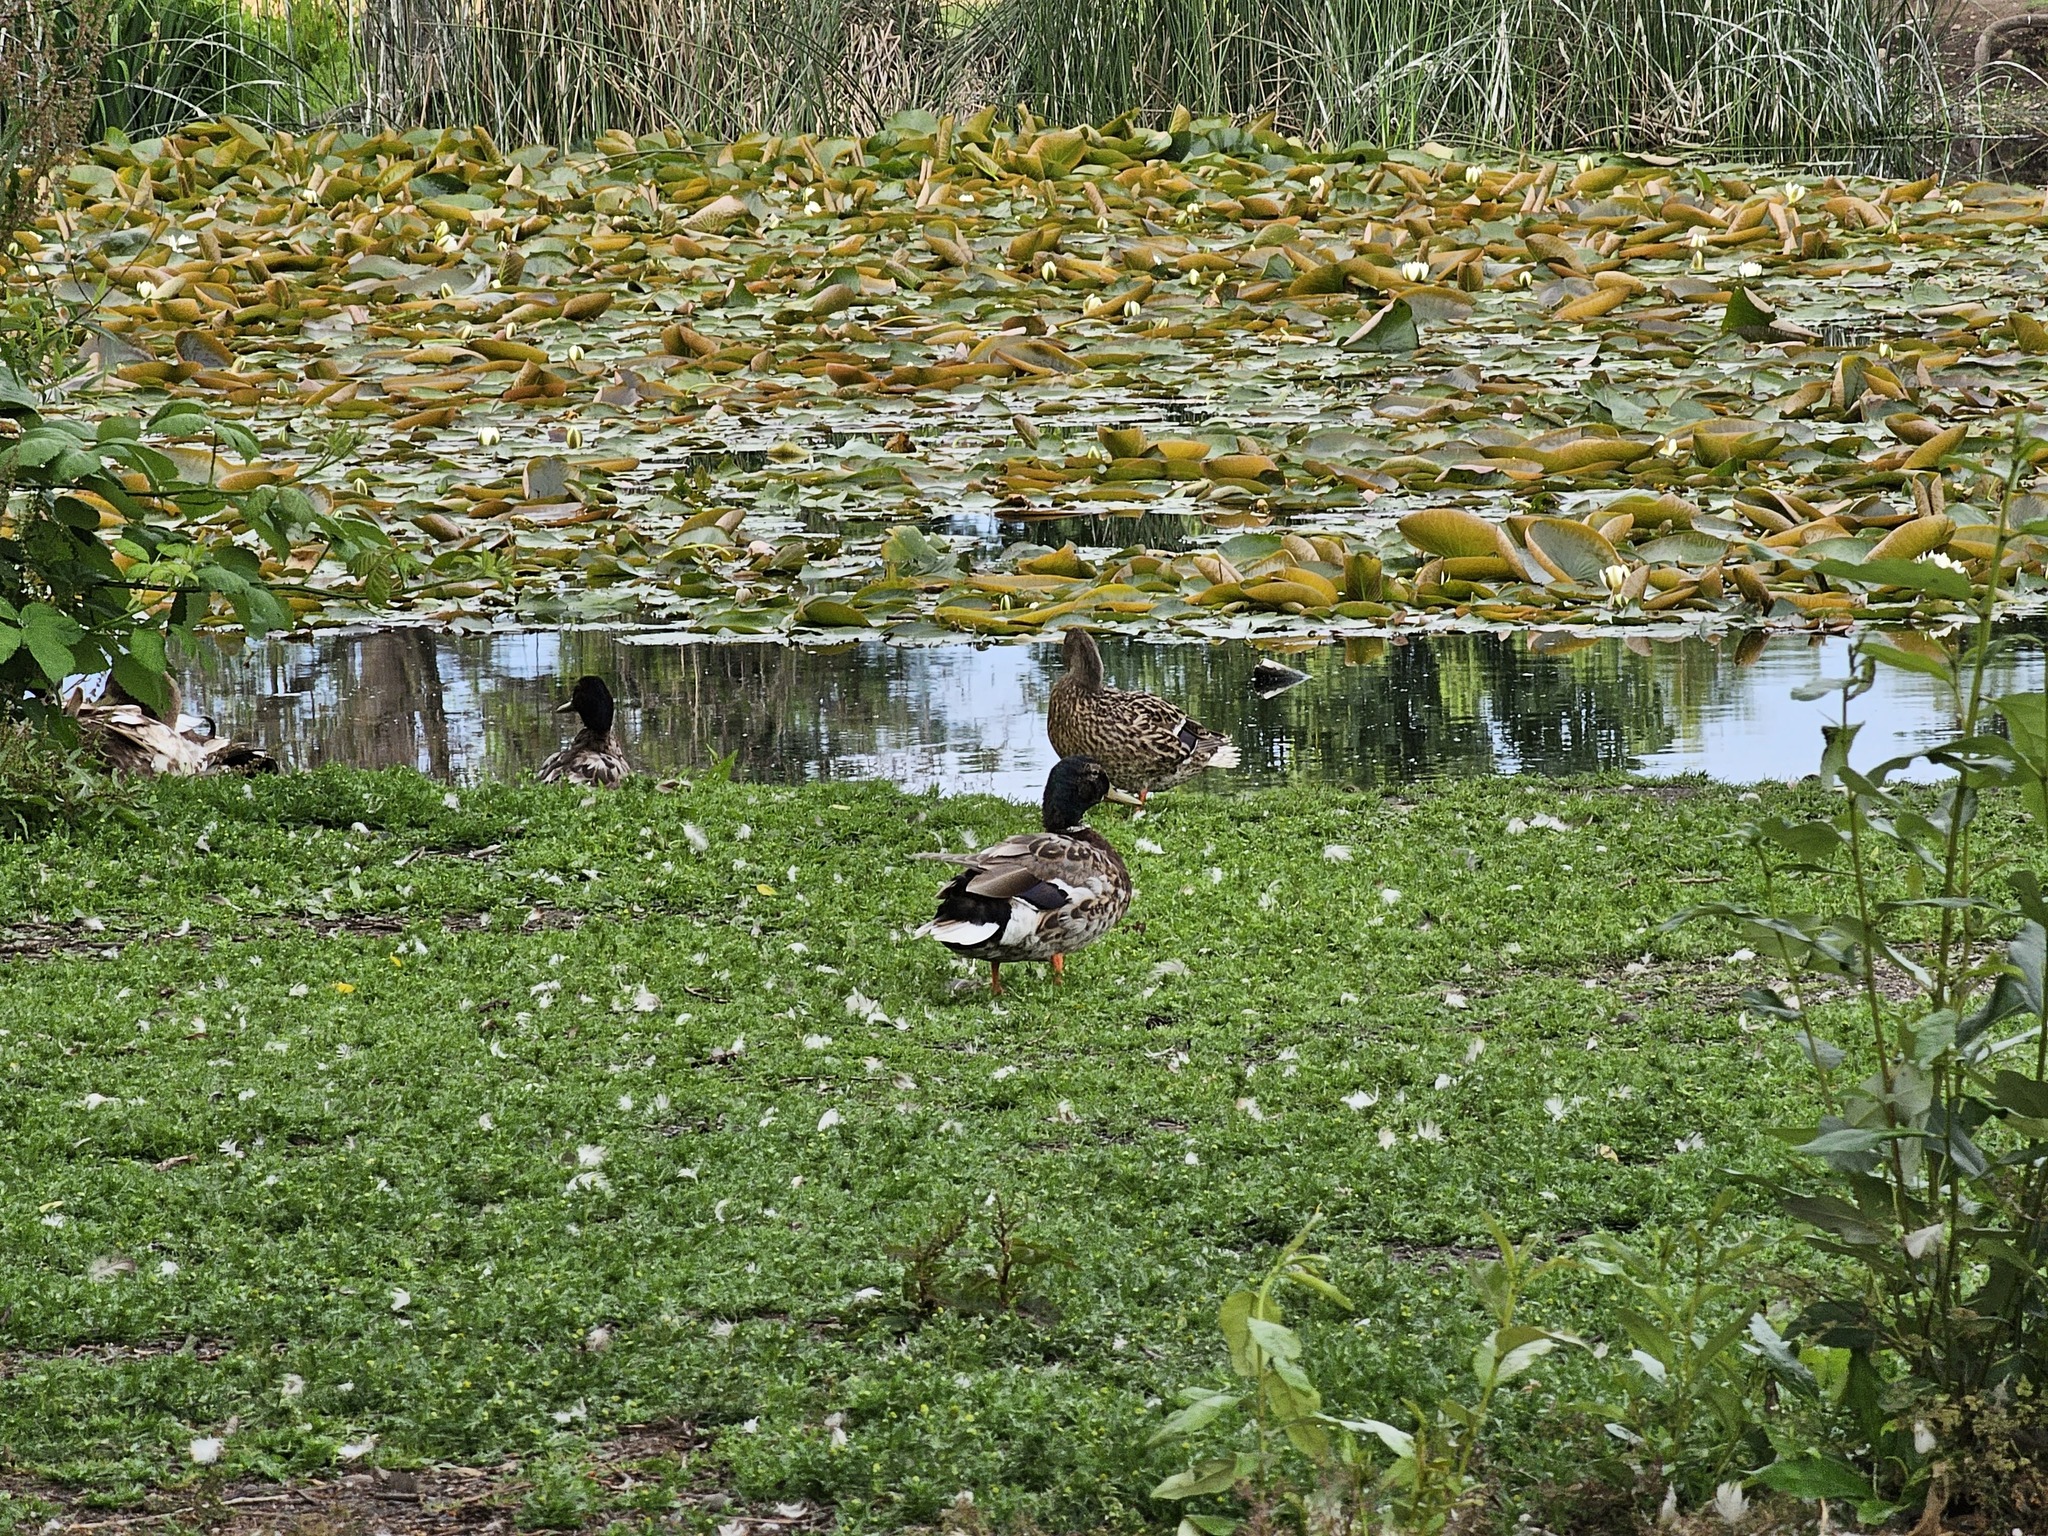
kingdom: Animalia
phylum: Chordata
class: Aves
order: Anseriformes
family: Anatidae
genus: Anas
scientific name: Anas platyrhynchos
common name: Mallard
